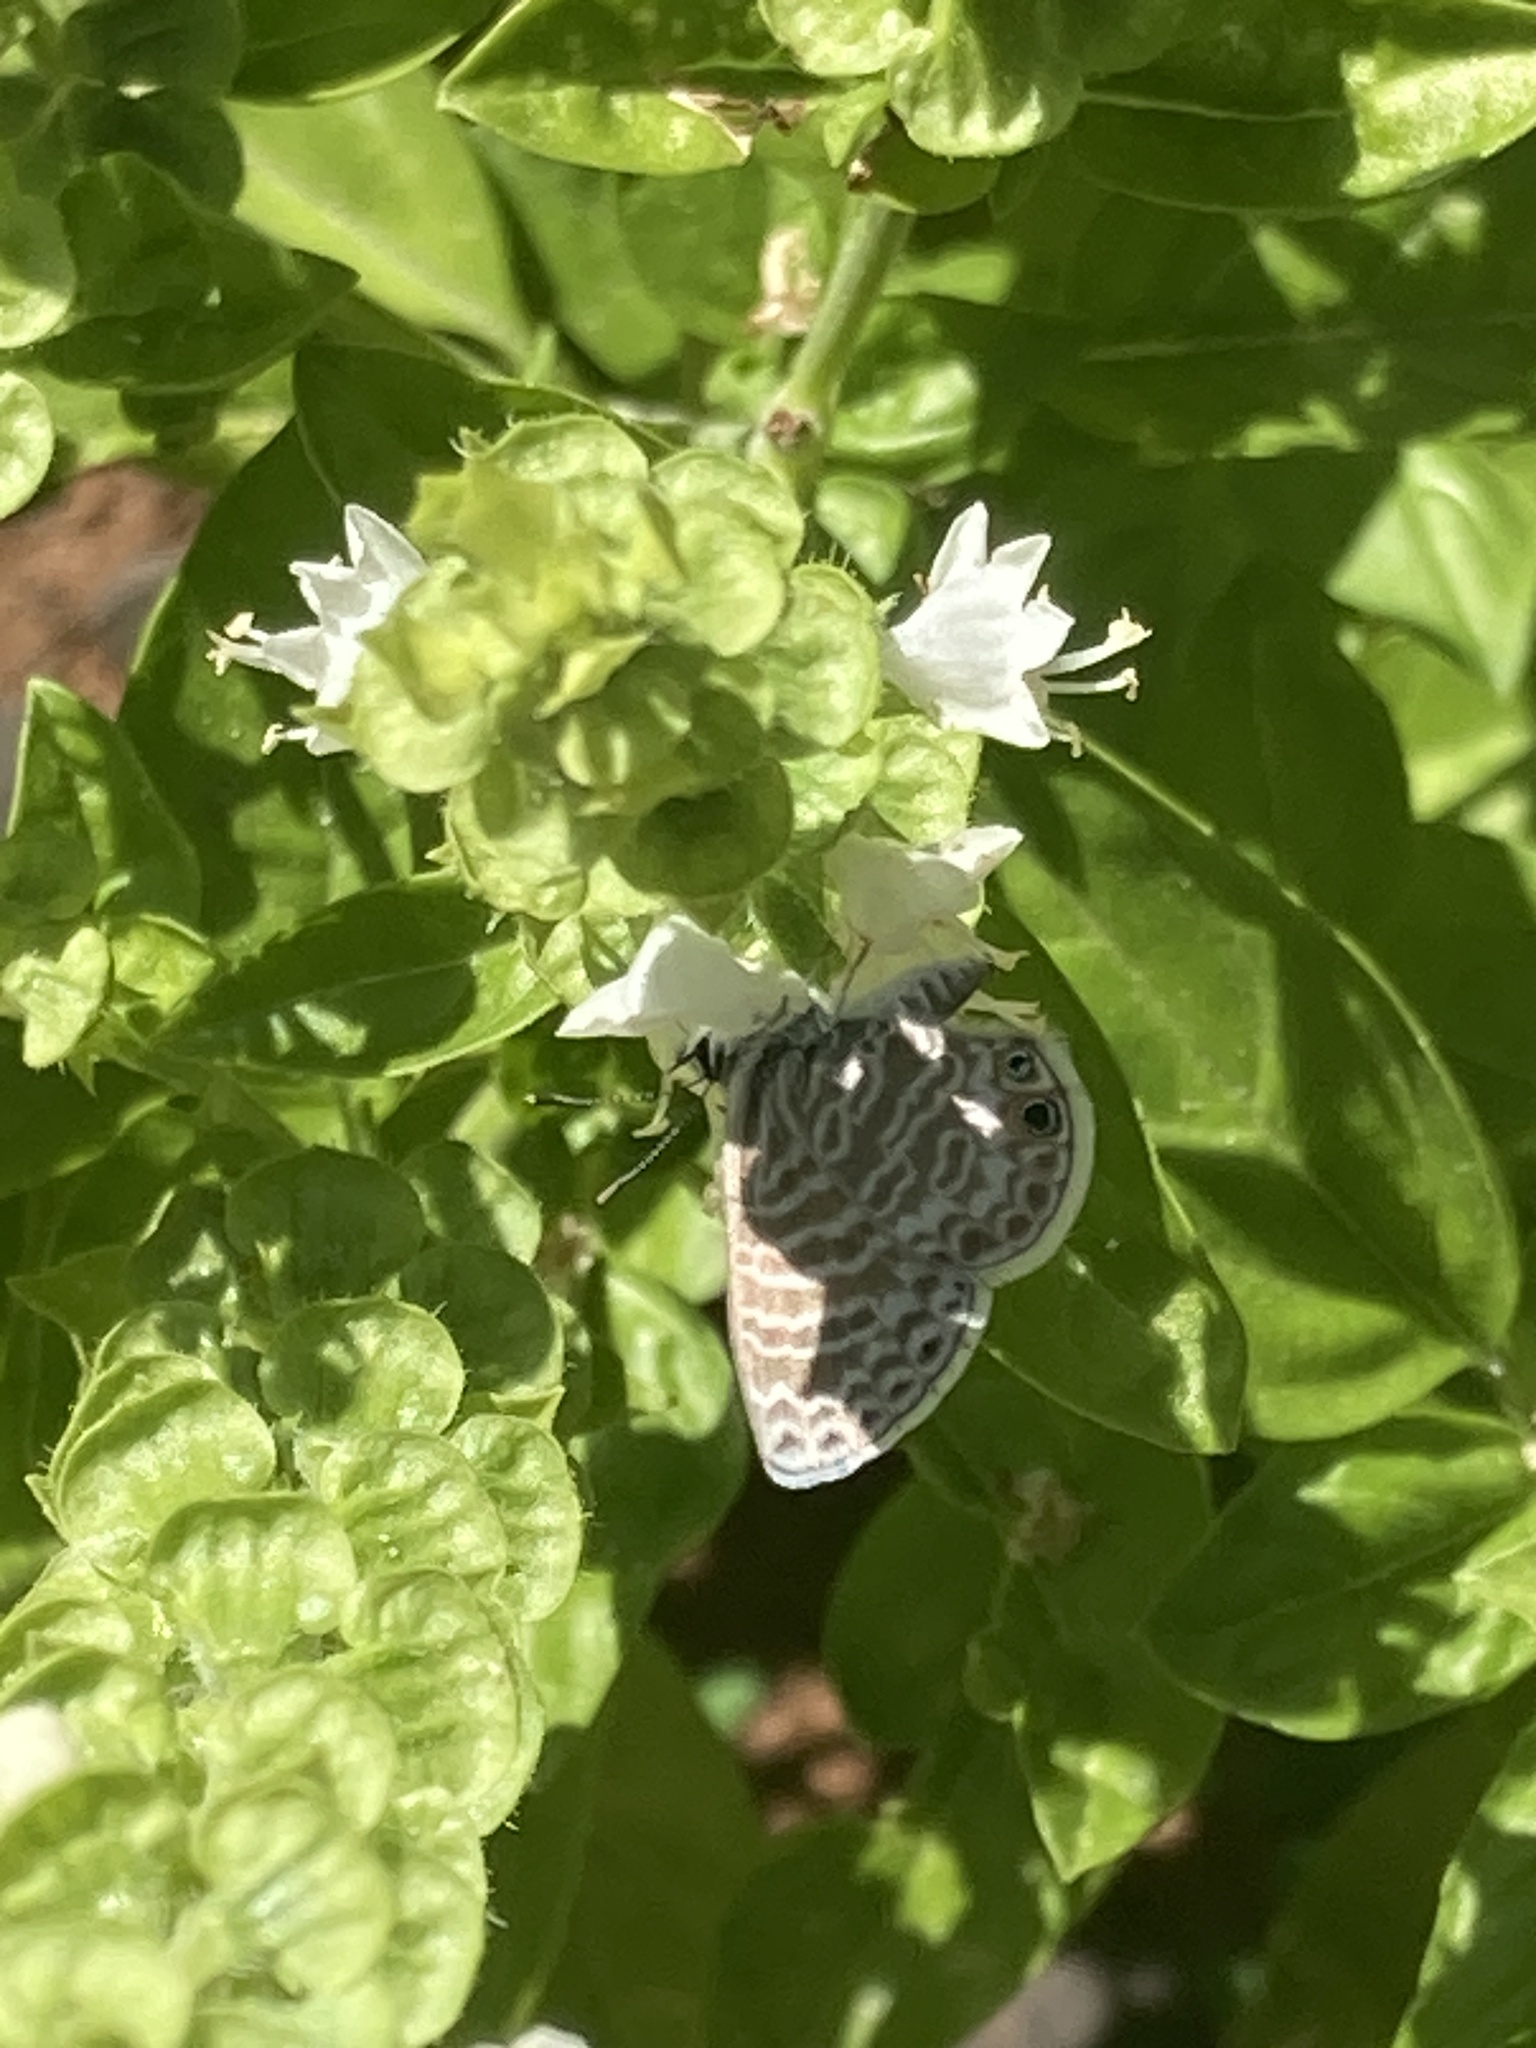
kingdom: Animalia
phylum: Arthropoda
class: Insecta
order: Lepidoptera
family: Lycaenidae
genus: Leptotes
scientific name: Leptotes marina
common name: Marine blue
